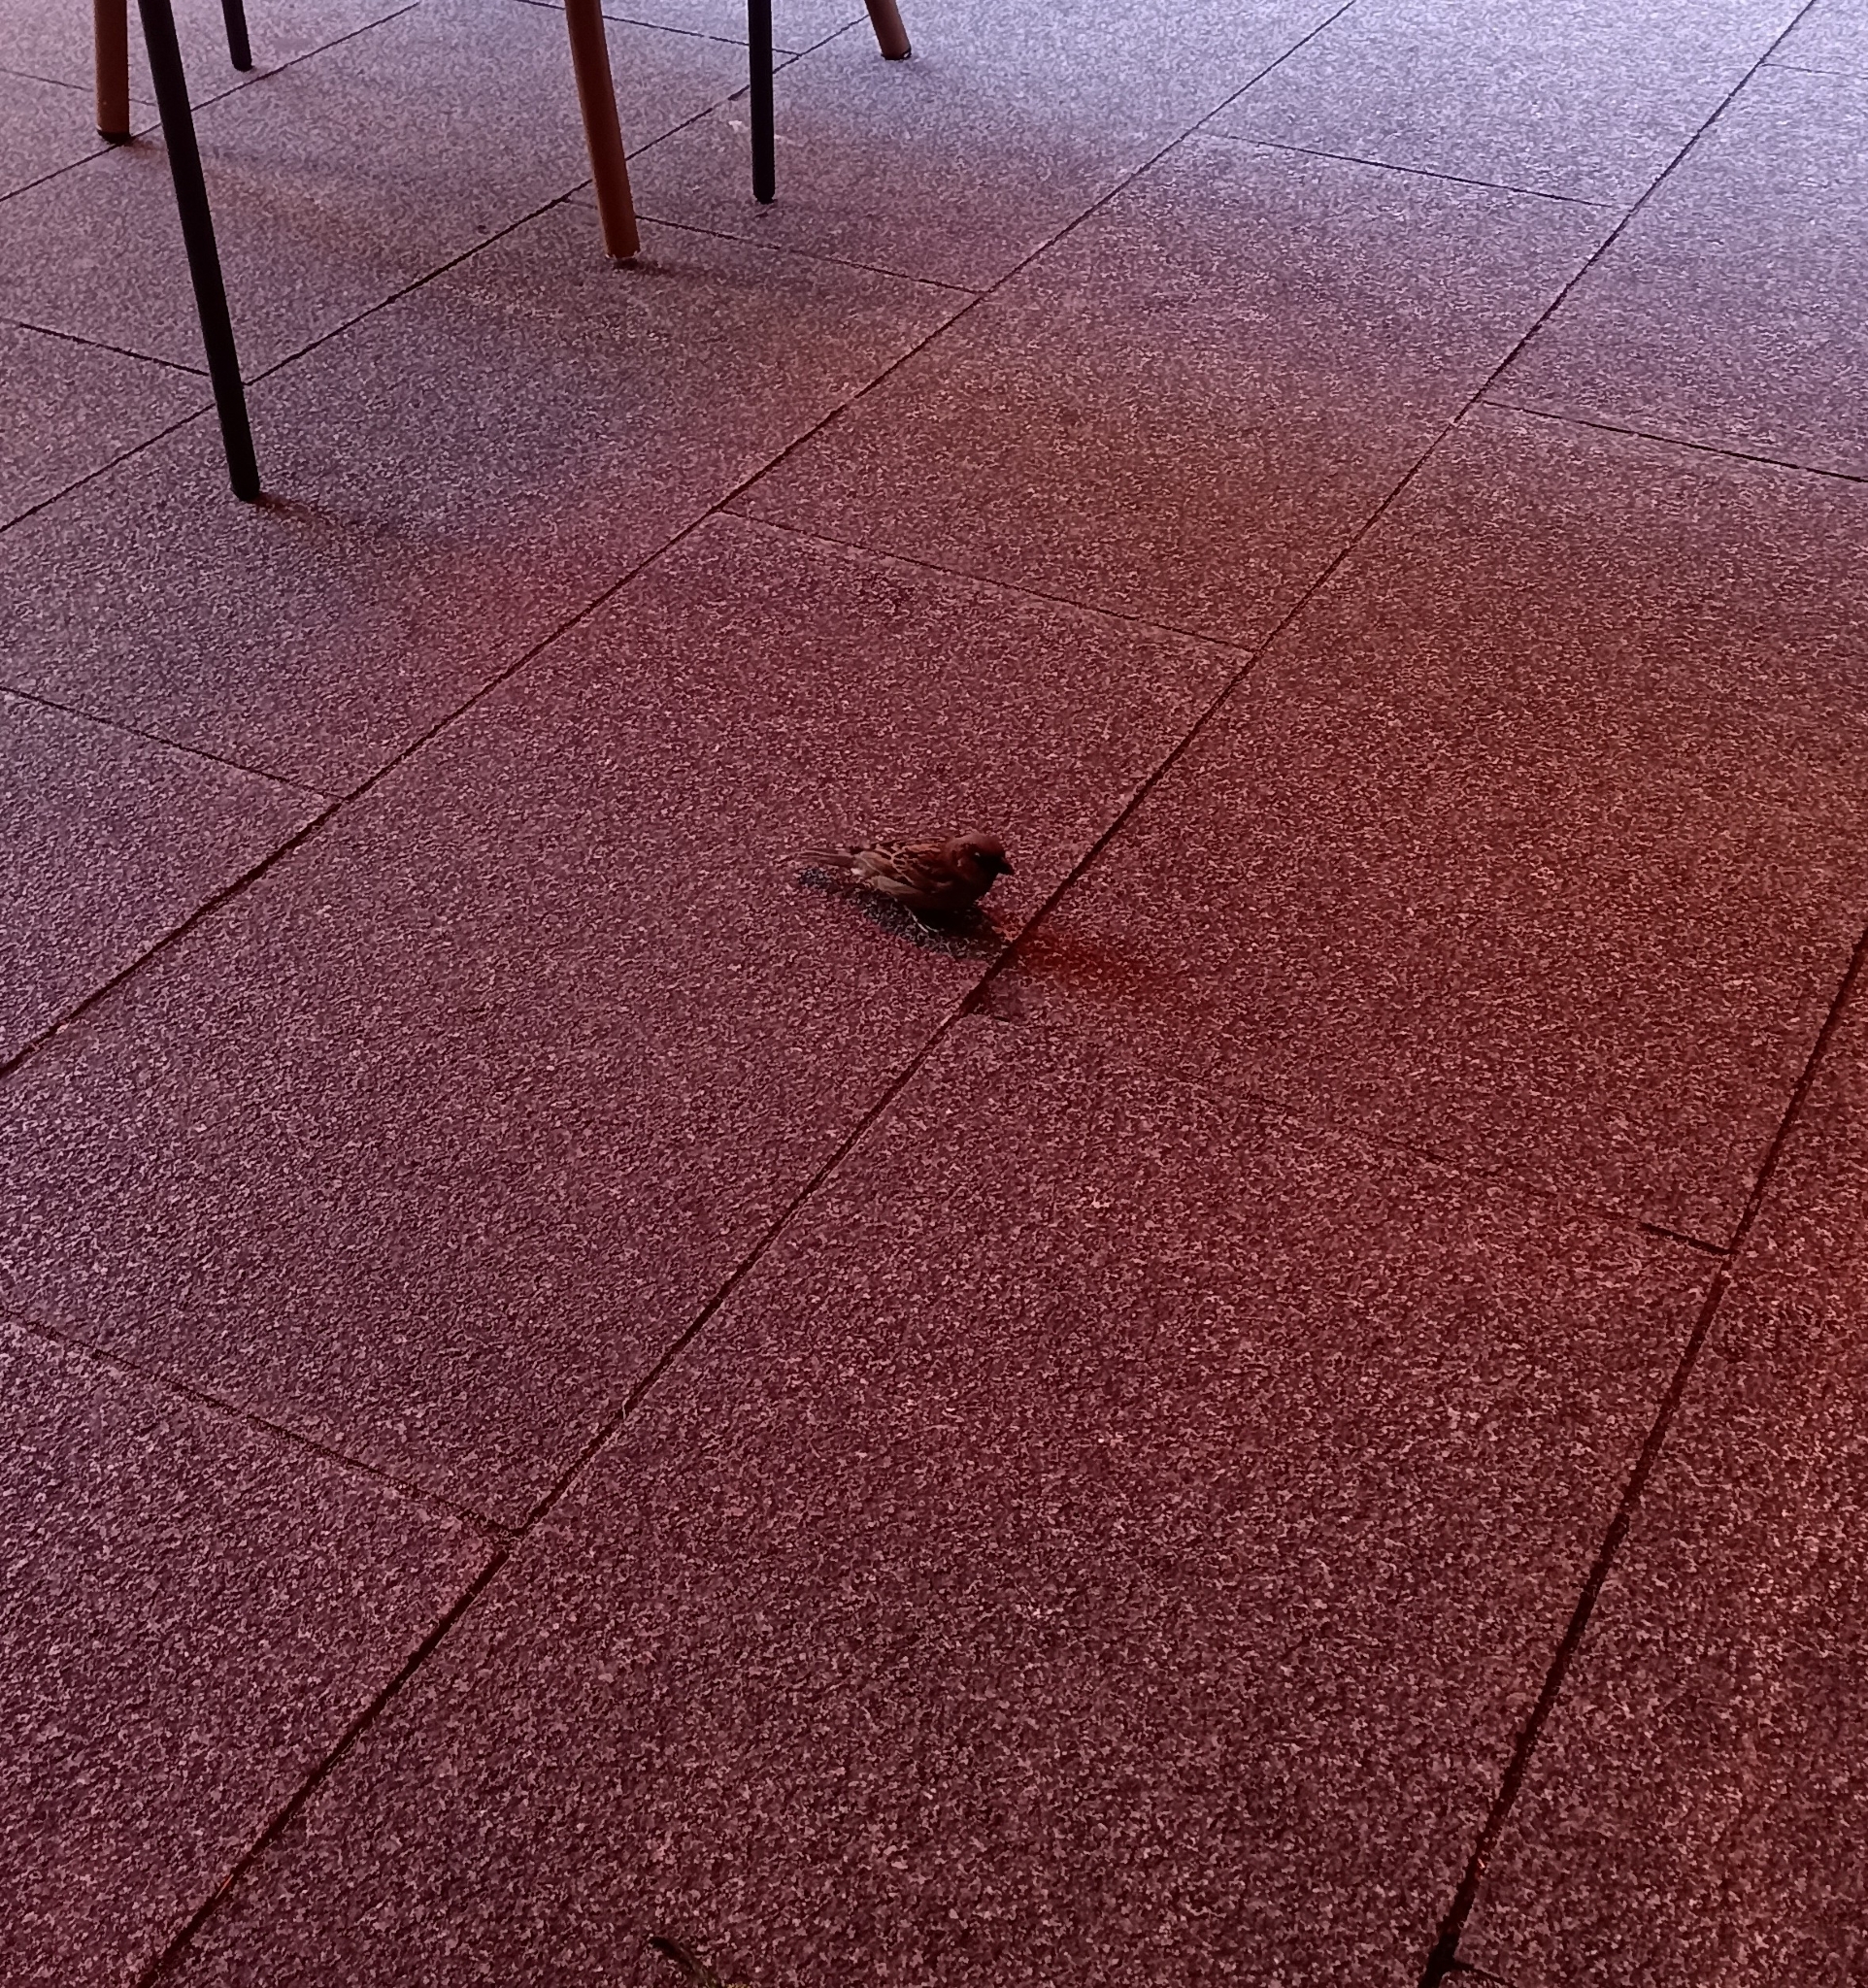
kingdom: Animalia
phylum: Chordata
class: Aves
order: Passeriformes
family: Passeridae
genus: Passer
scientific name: Passer domesticus
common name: House sparrow
